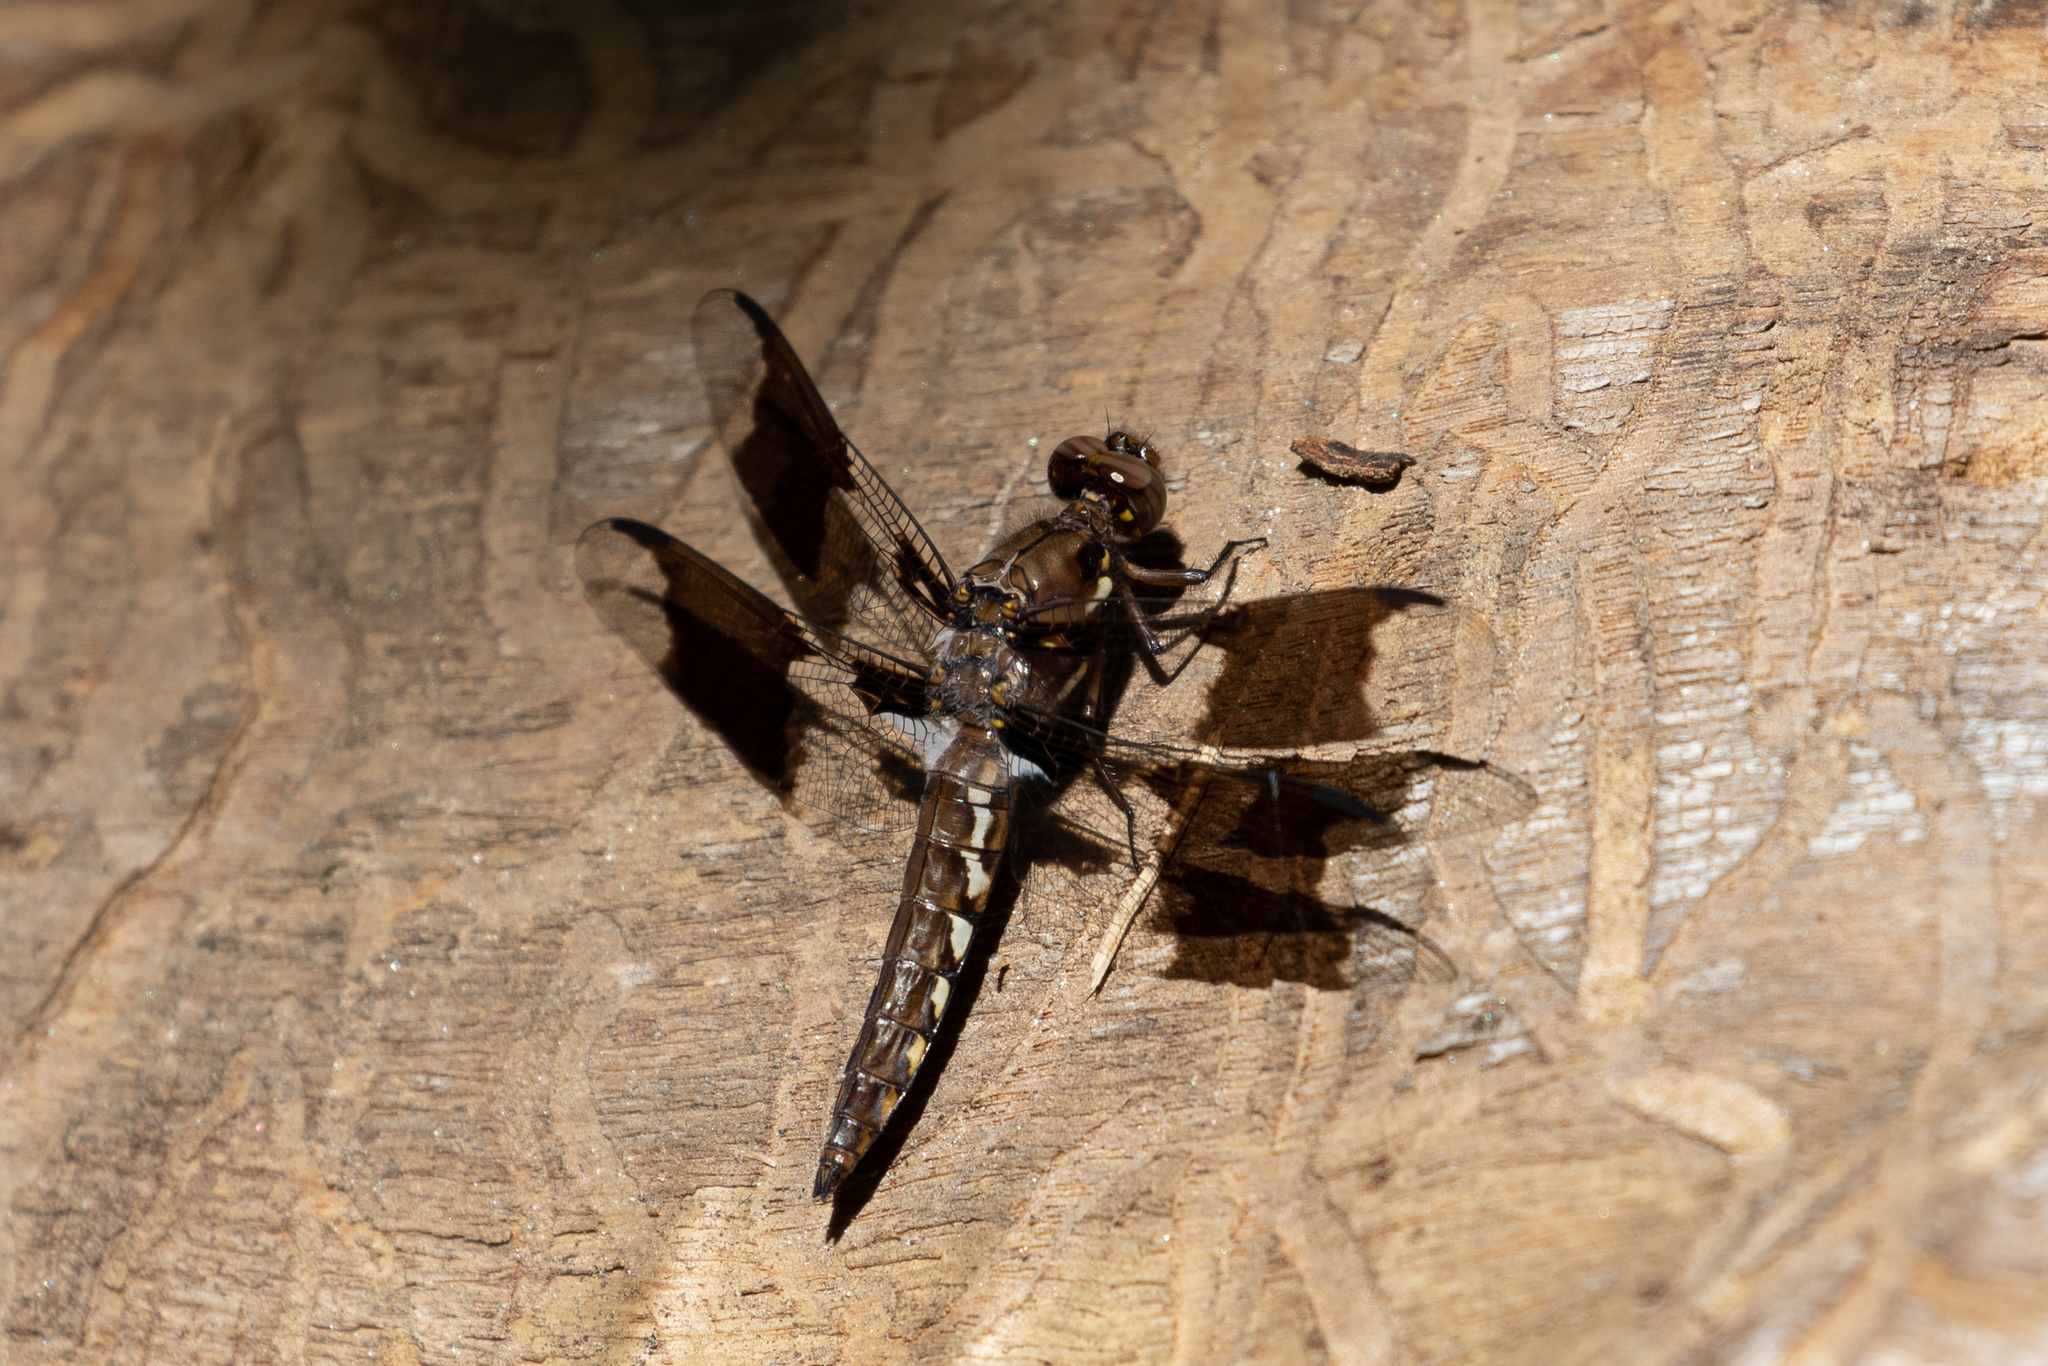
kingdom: Animalia
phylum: Arthropoda
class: Insecta
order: Odonata
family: Libellulidae
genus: Plathemis
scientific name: Plathemis lydia
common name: Common whitetail
